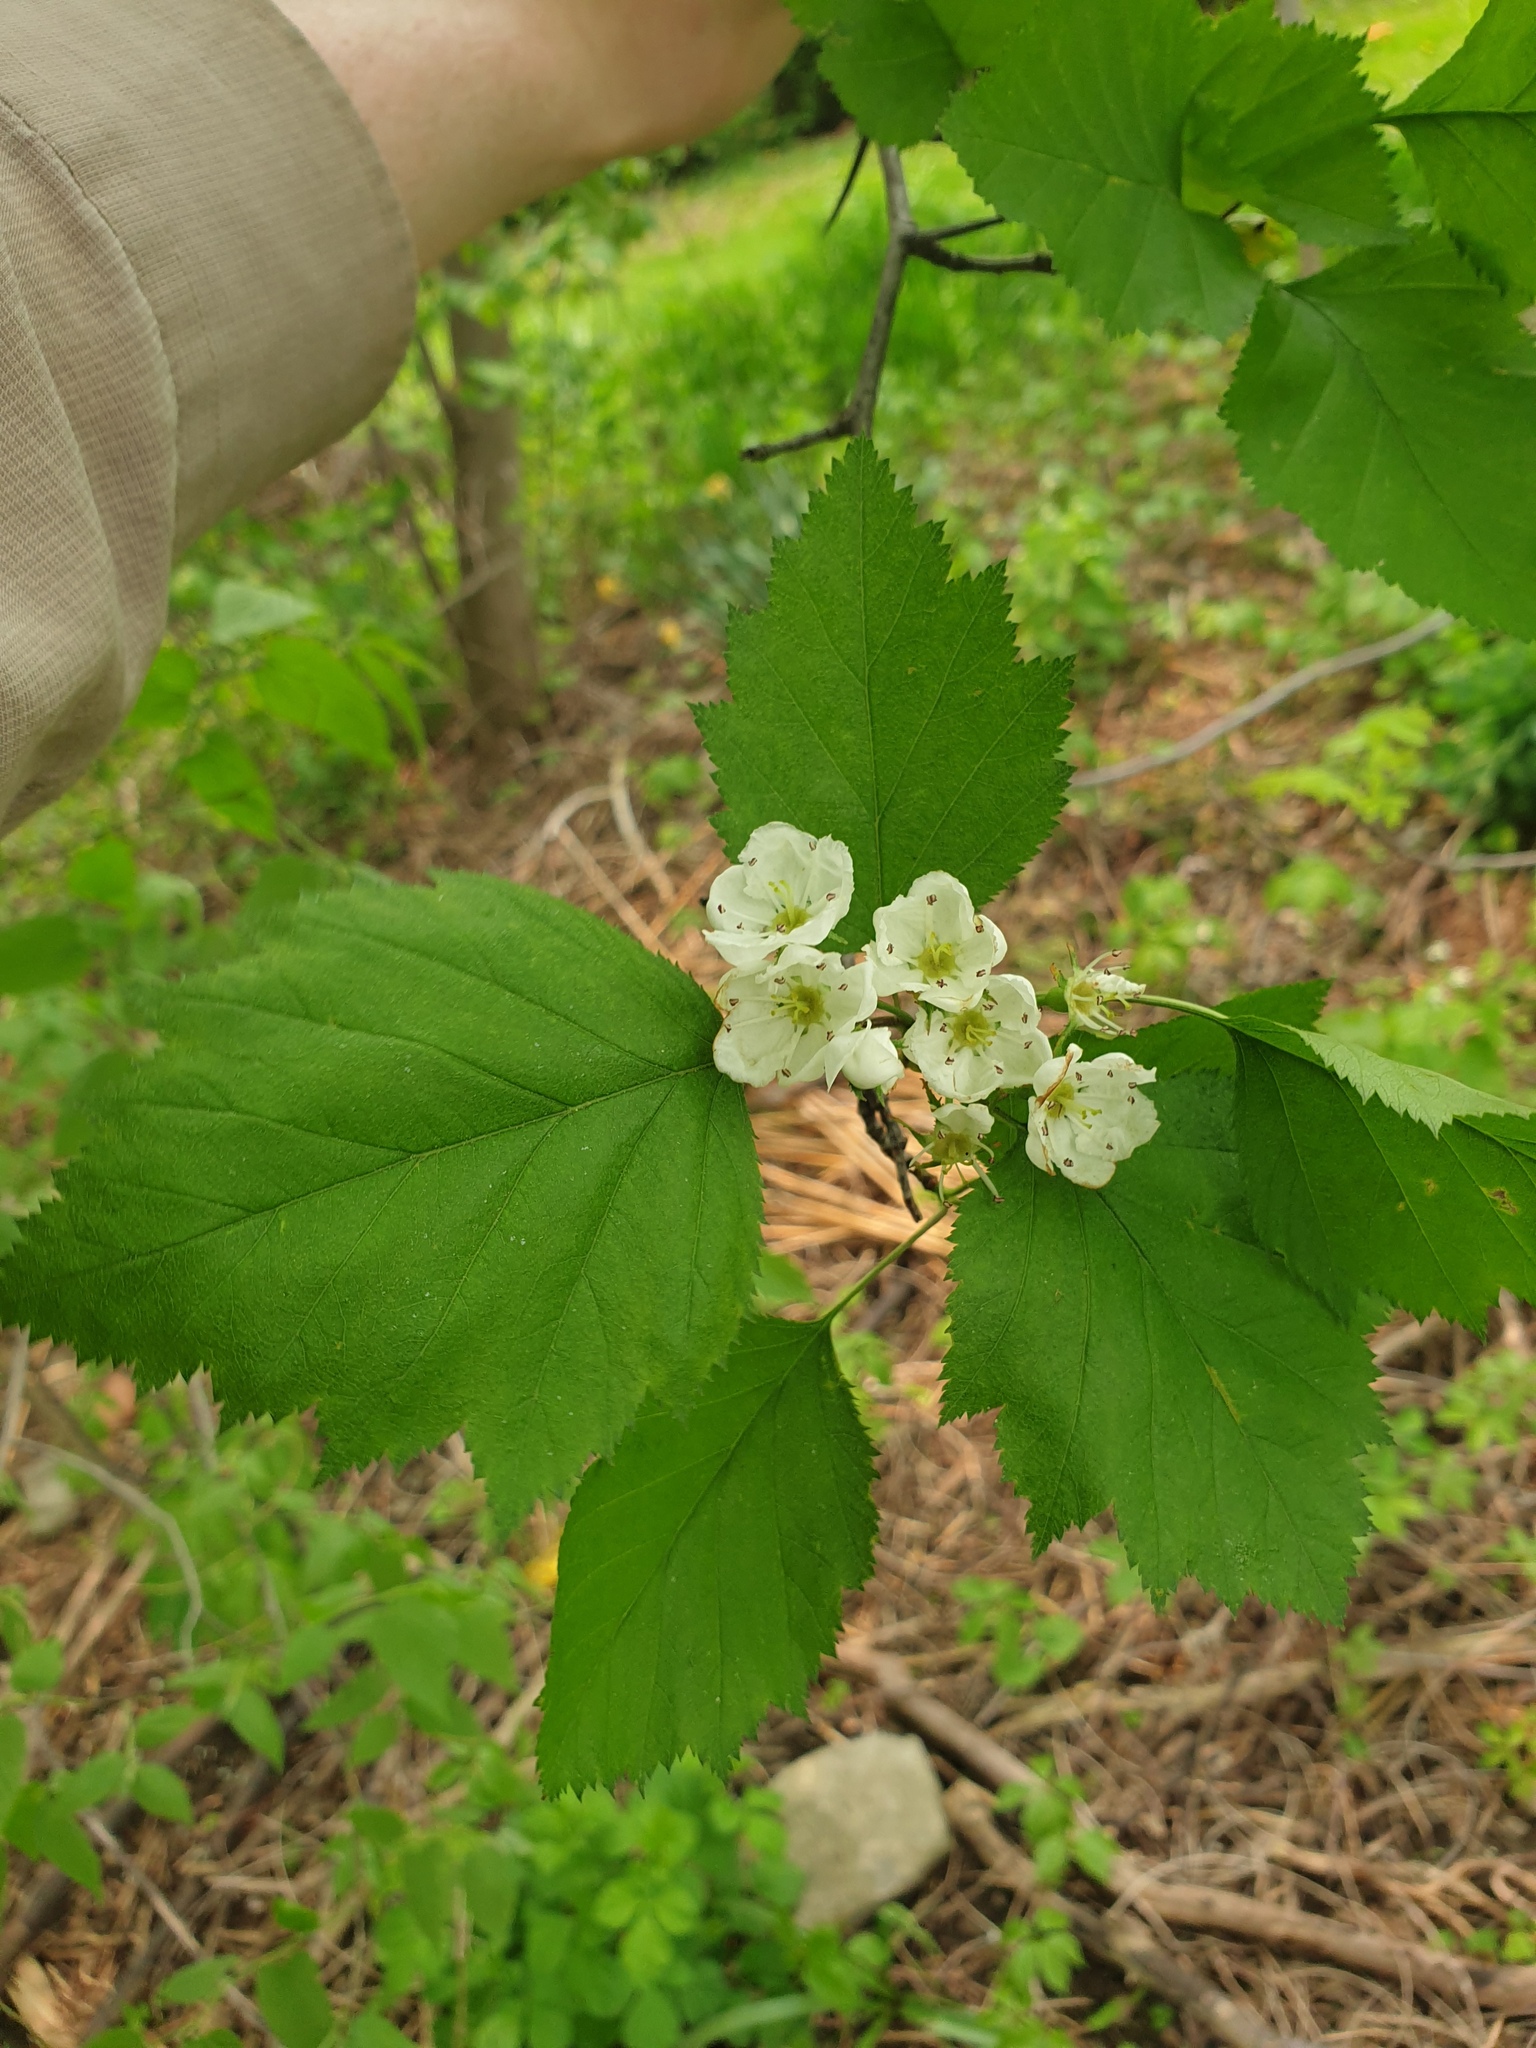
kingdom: Plantae
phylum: Tracheophyta
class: Magnoliopsida
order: Rosales
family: Rosaceae
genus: Crataegus
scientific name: Crataegus coccinea
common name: Scarlet hawthorn
